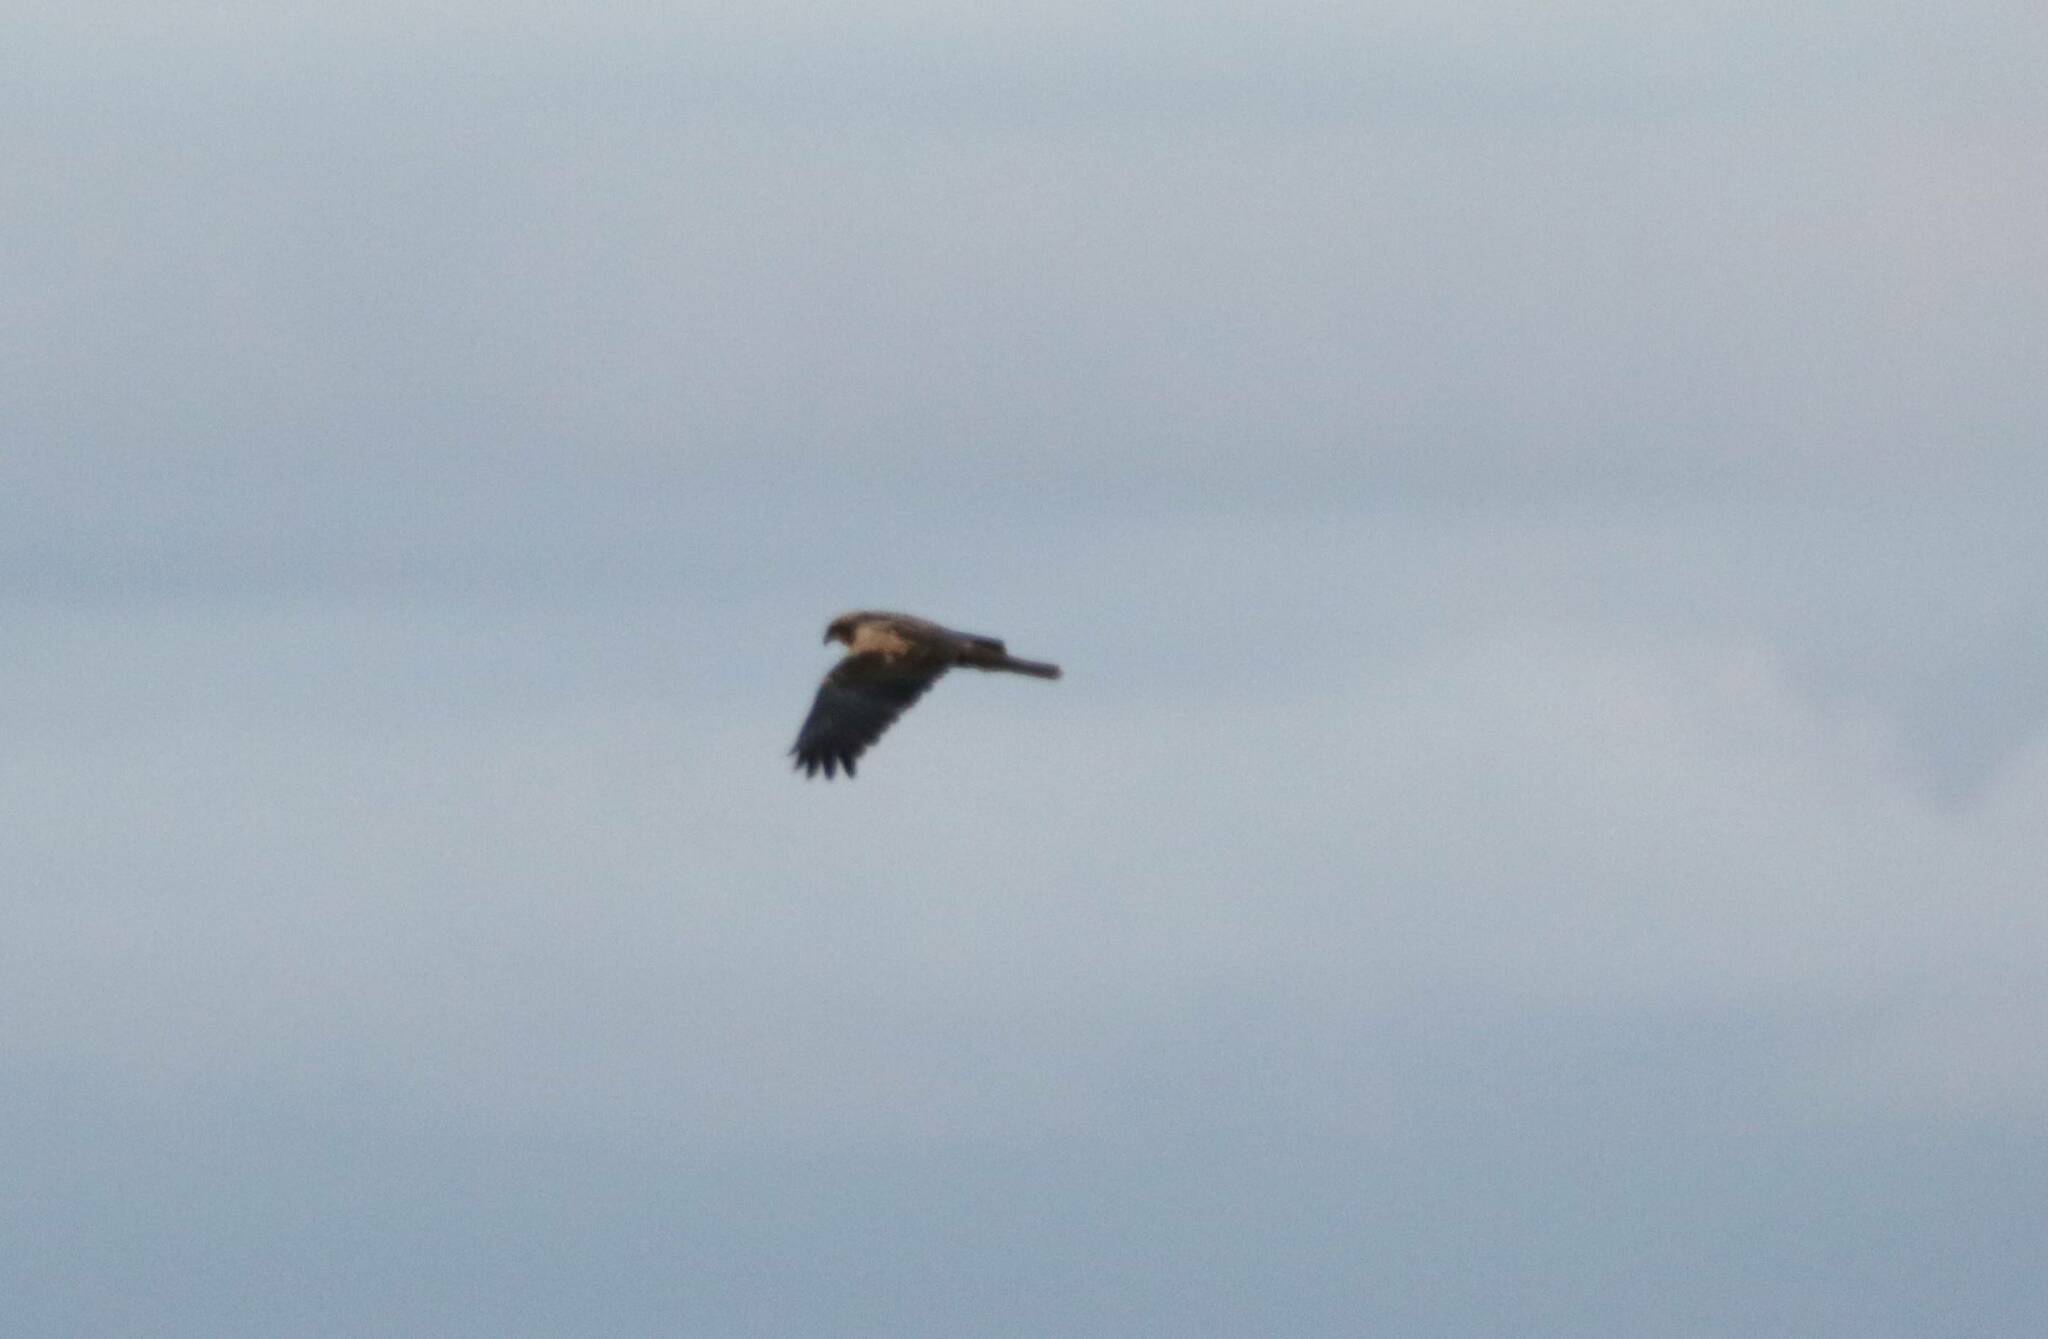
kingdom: Animalia
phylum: Chordata
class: Aves
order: Accipitriformes
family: Accipitridae
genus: Circus
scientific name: Circus aeruginosus
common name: Western marsh harrier
